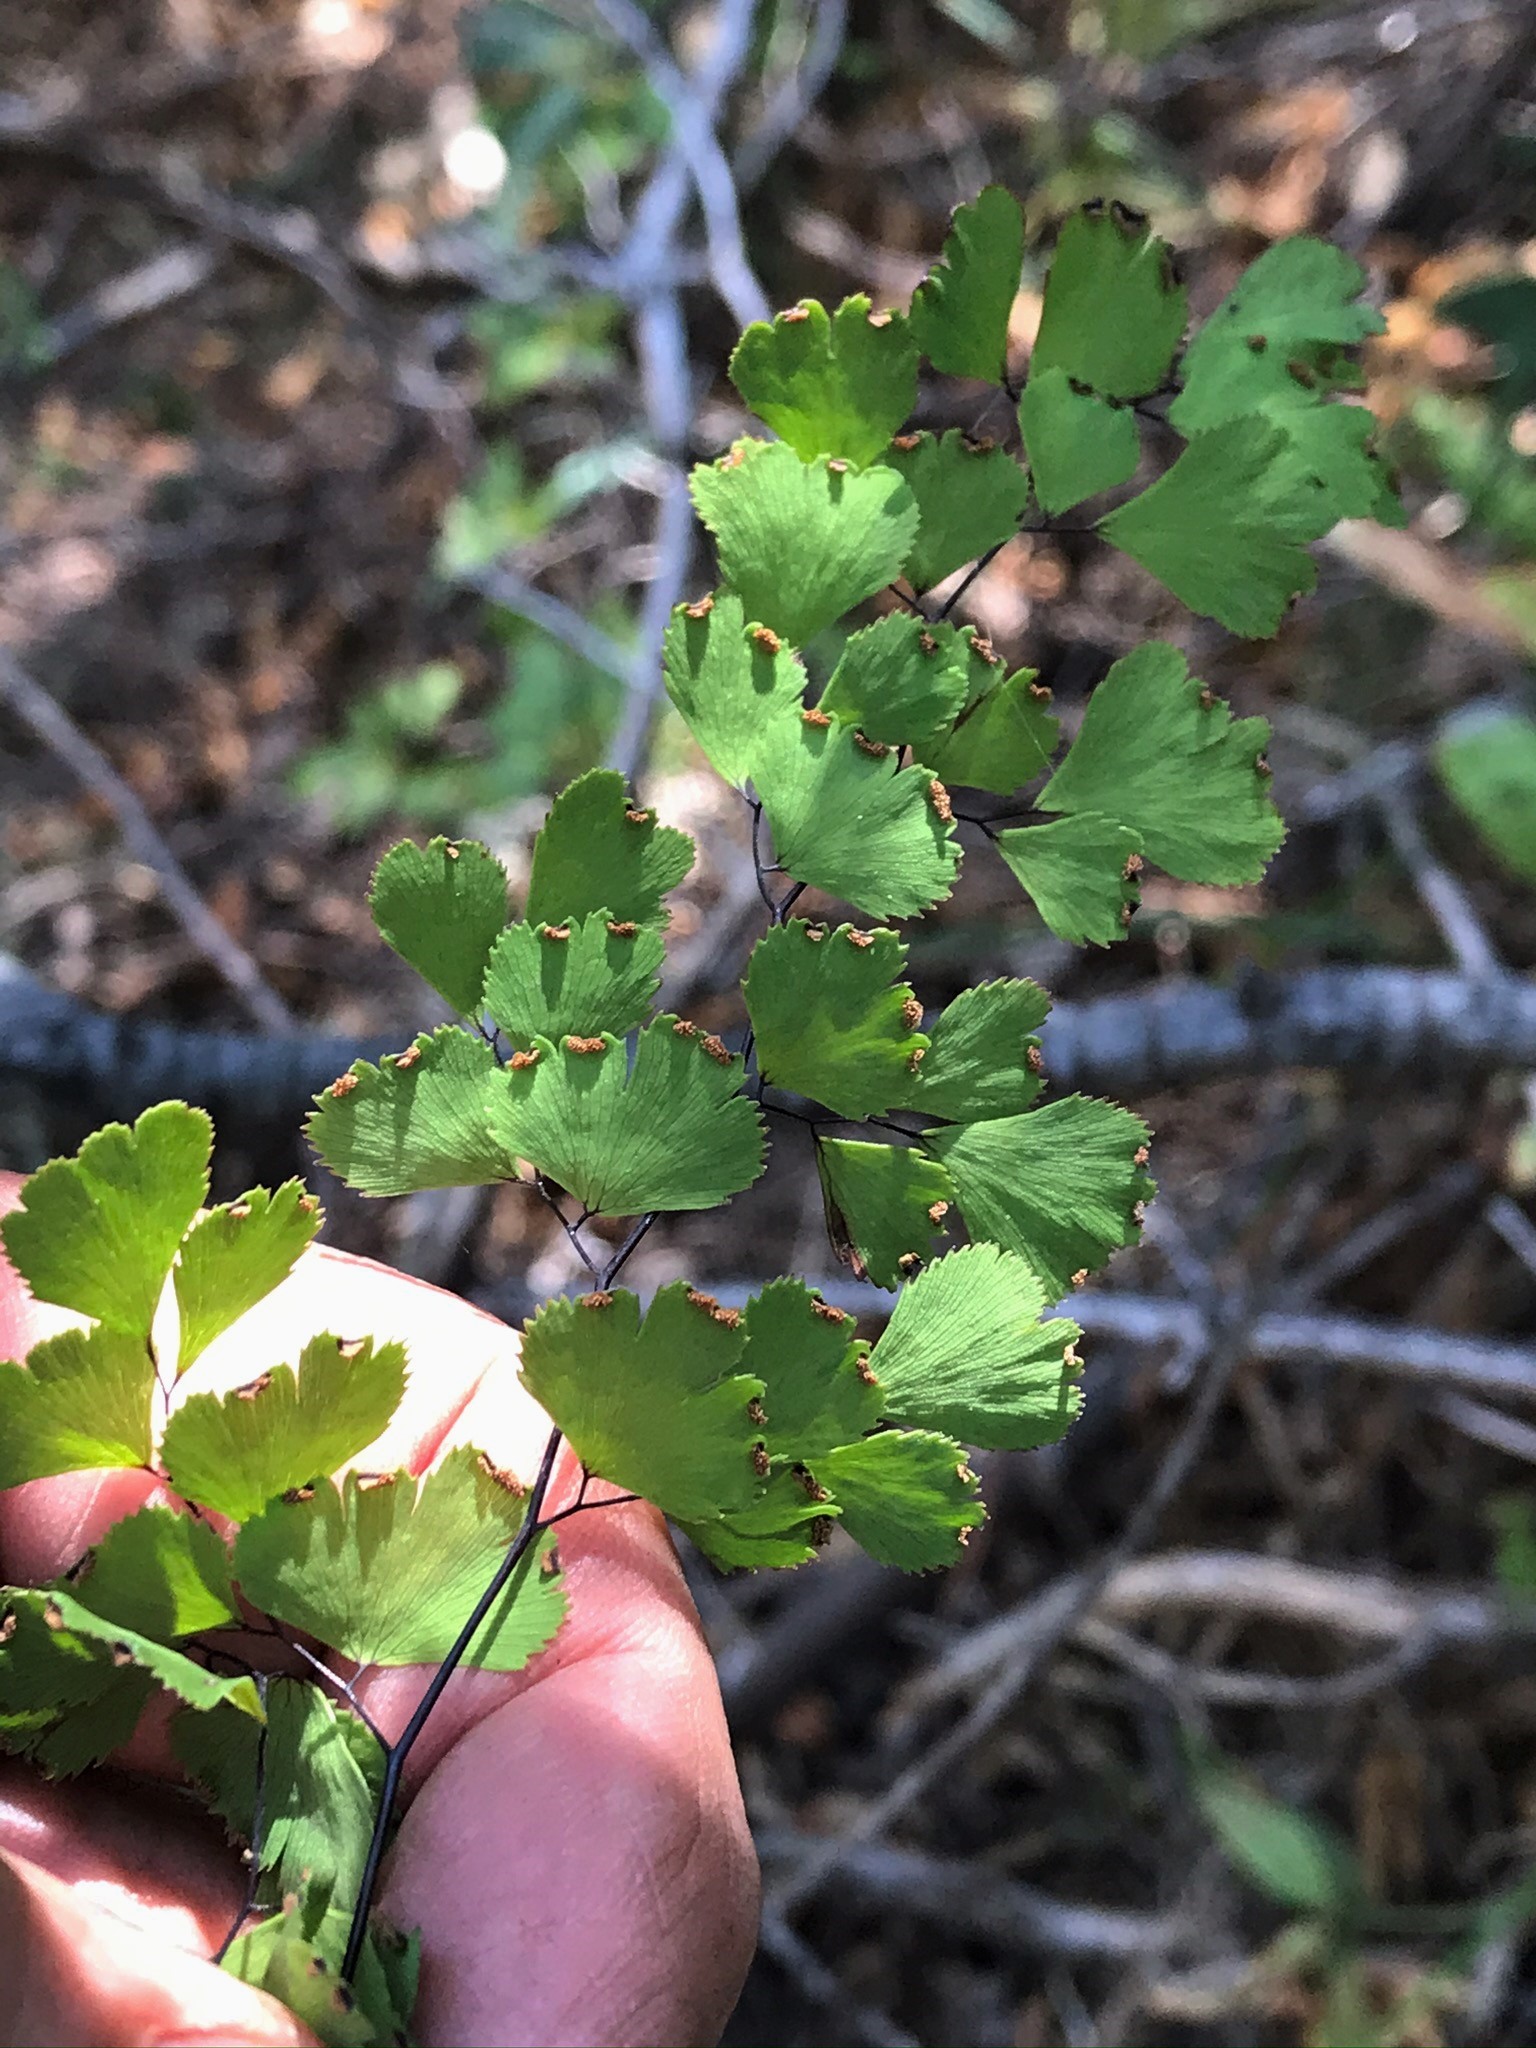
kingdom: Plantae
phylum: Tracheophyta
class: Polypodiopsida
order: Polypodiales
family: Pteridaceae
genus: Adiantum
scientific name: Adiantum capillus-veneris
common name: Maidenhair fern
